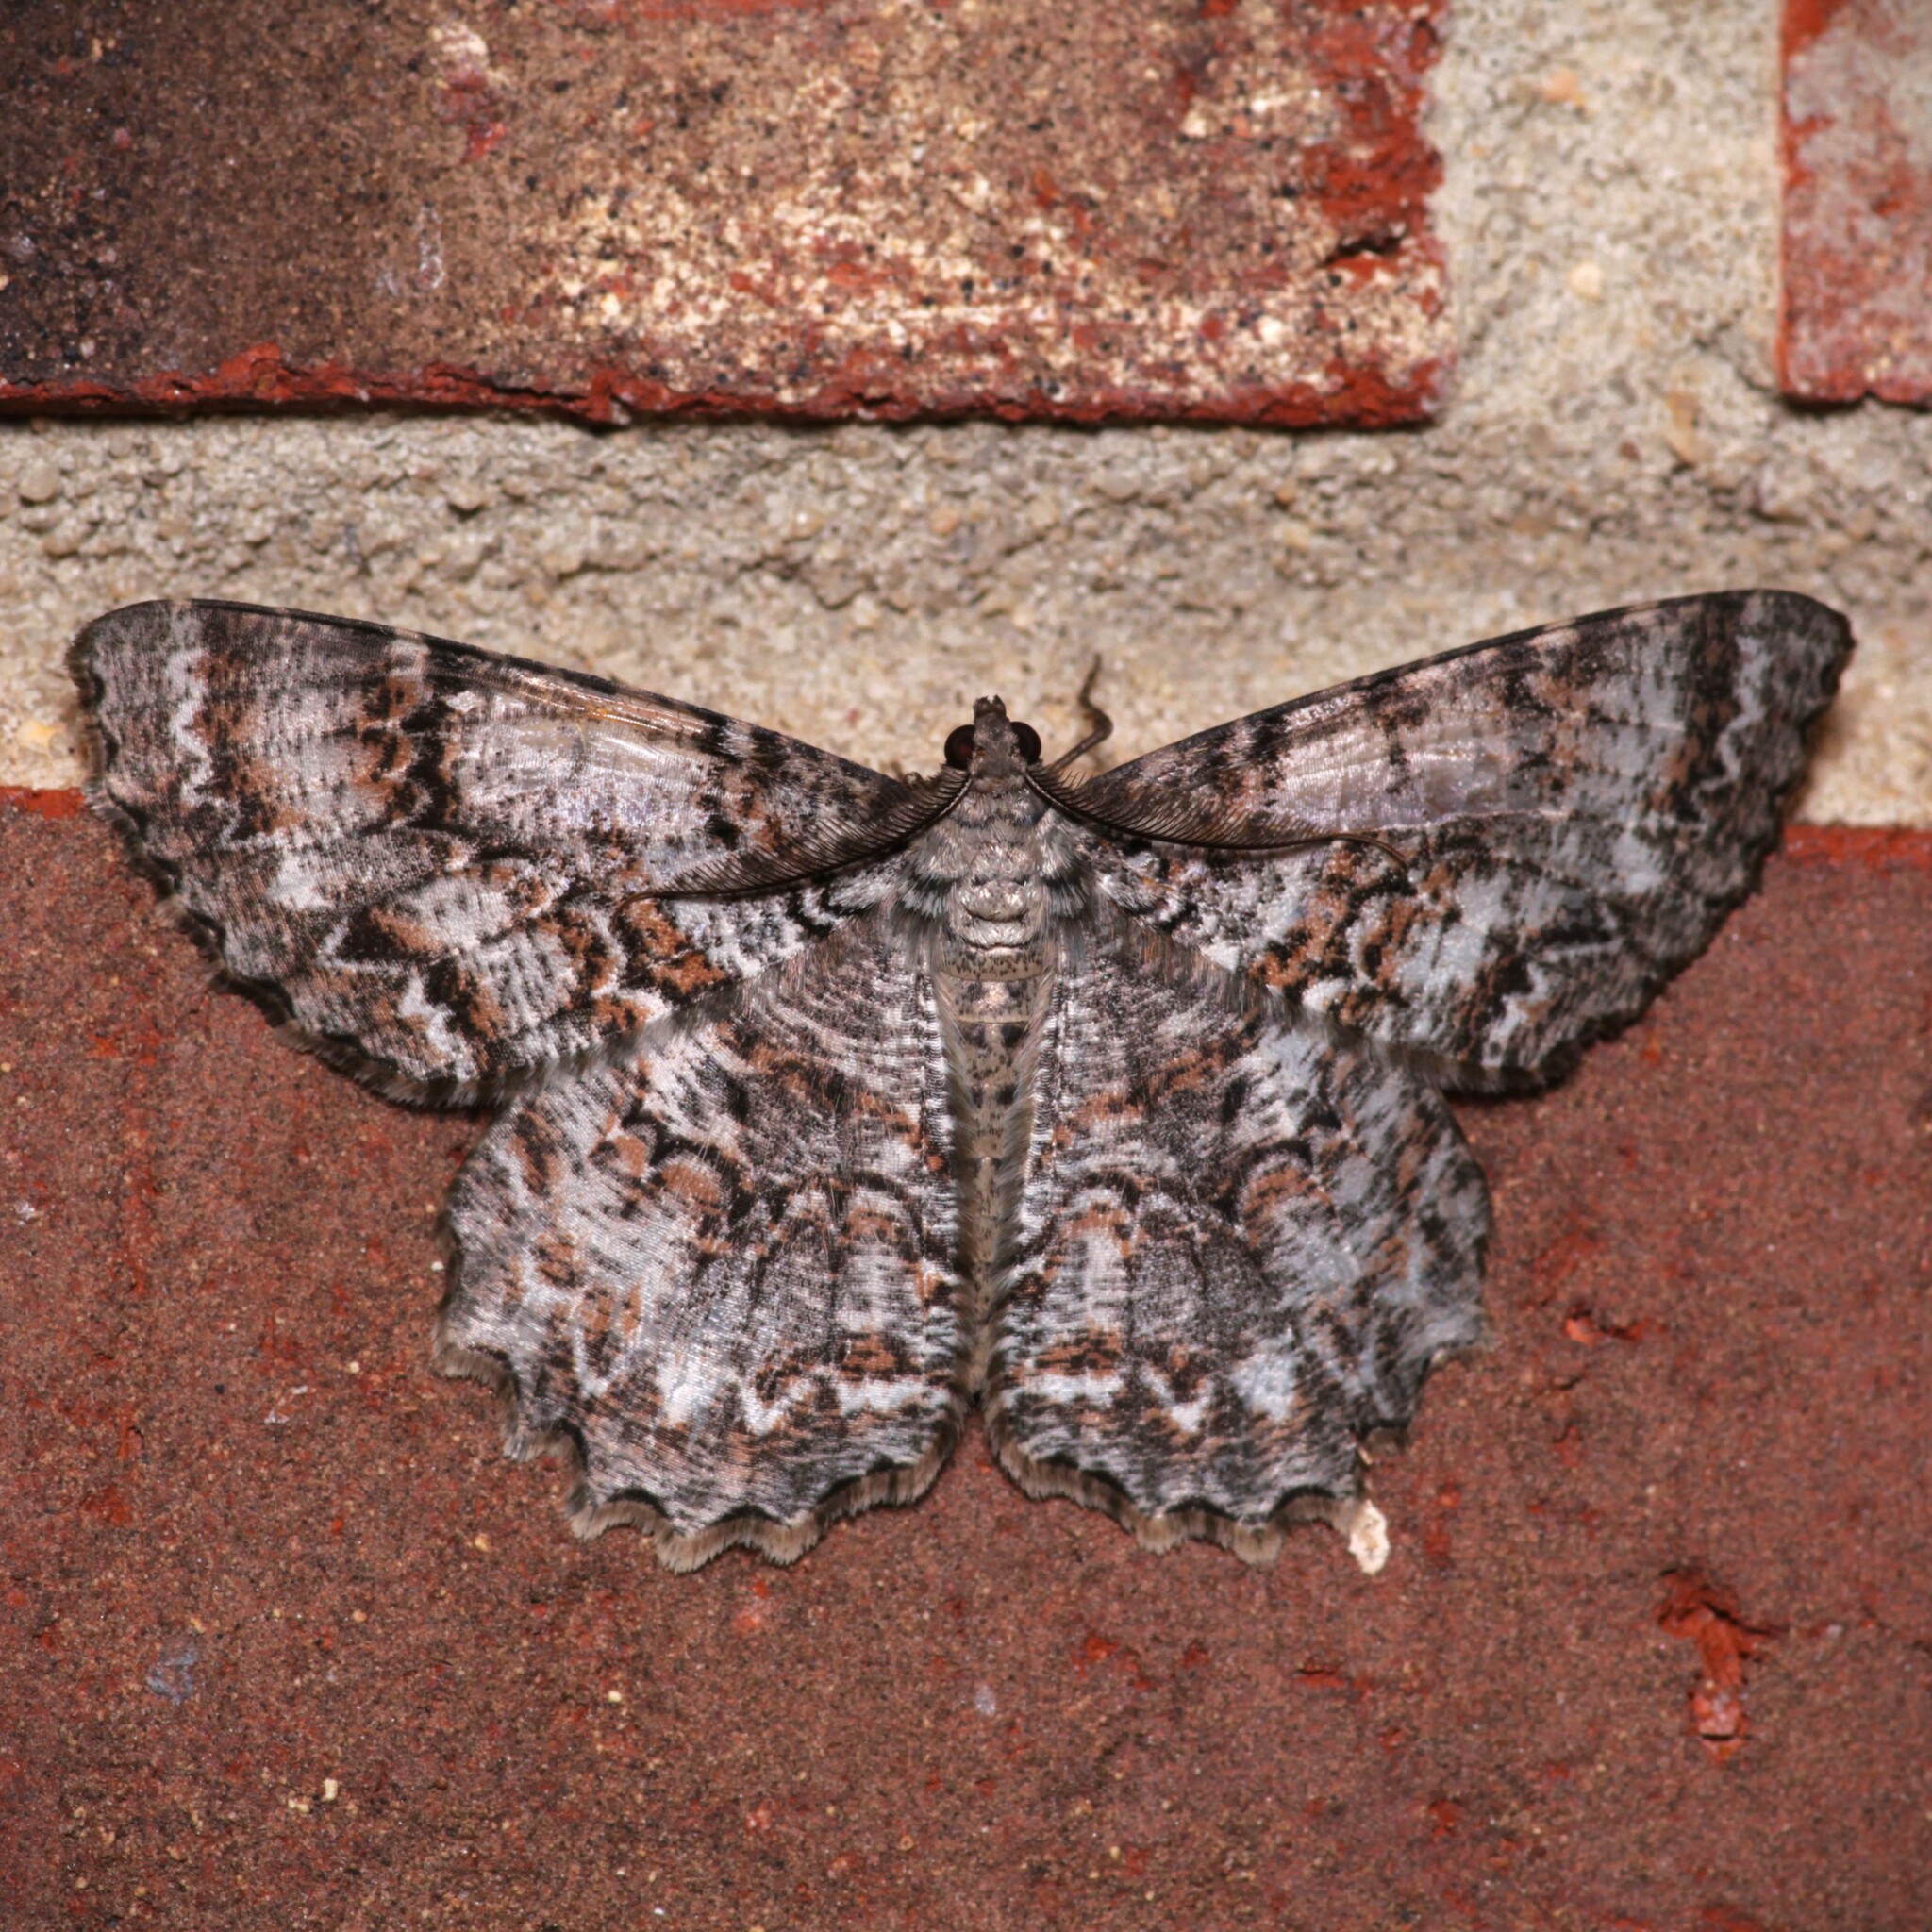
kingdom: Animalia
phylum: Arthropoda
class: Insecta
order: Lepidoptera
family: Geometridae
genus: Epimecis
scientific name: Epimecis hortaria
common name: Tulip-tree beauty
